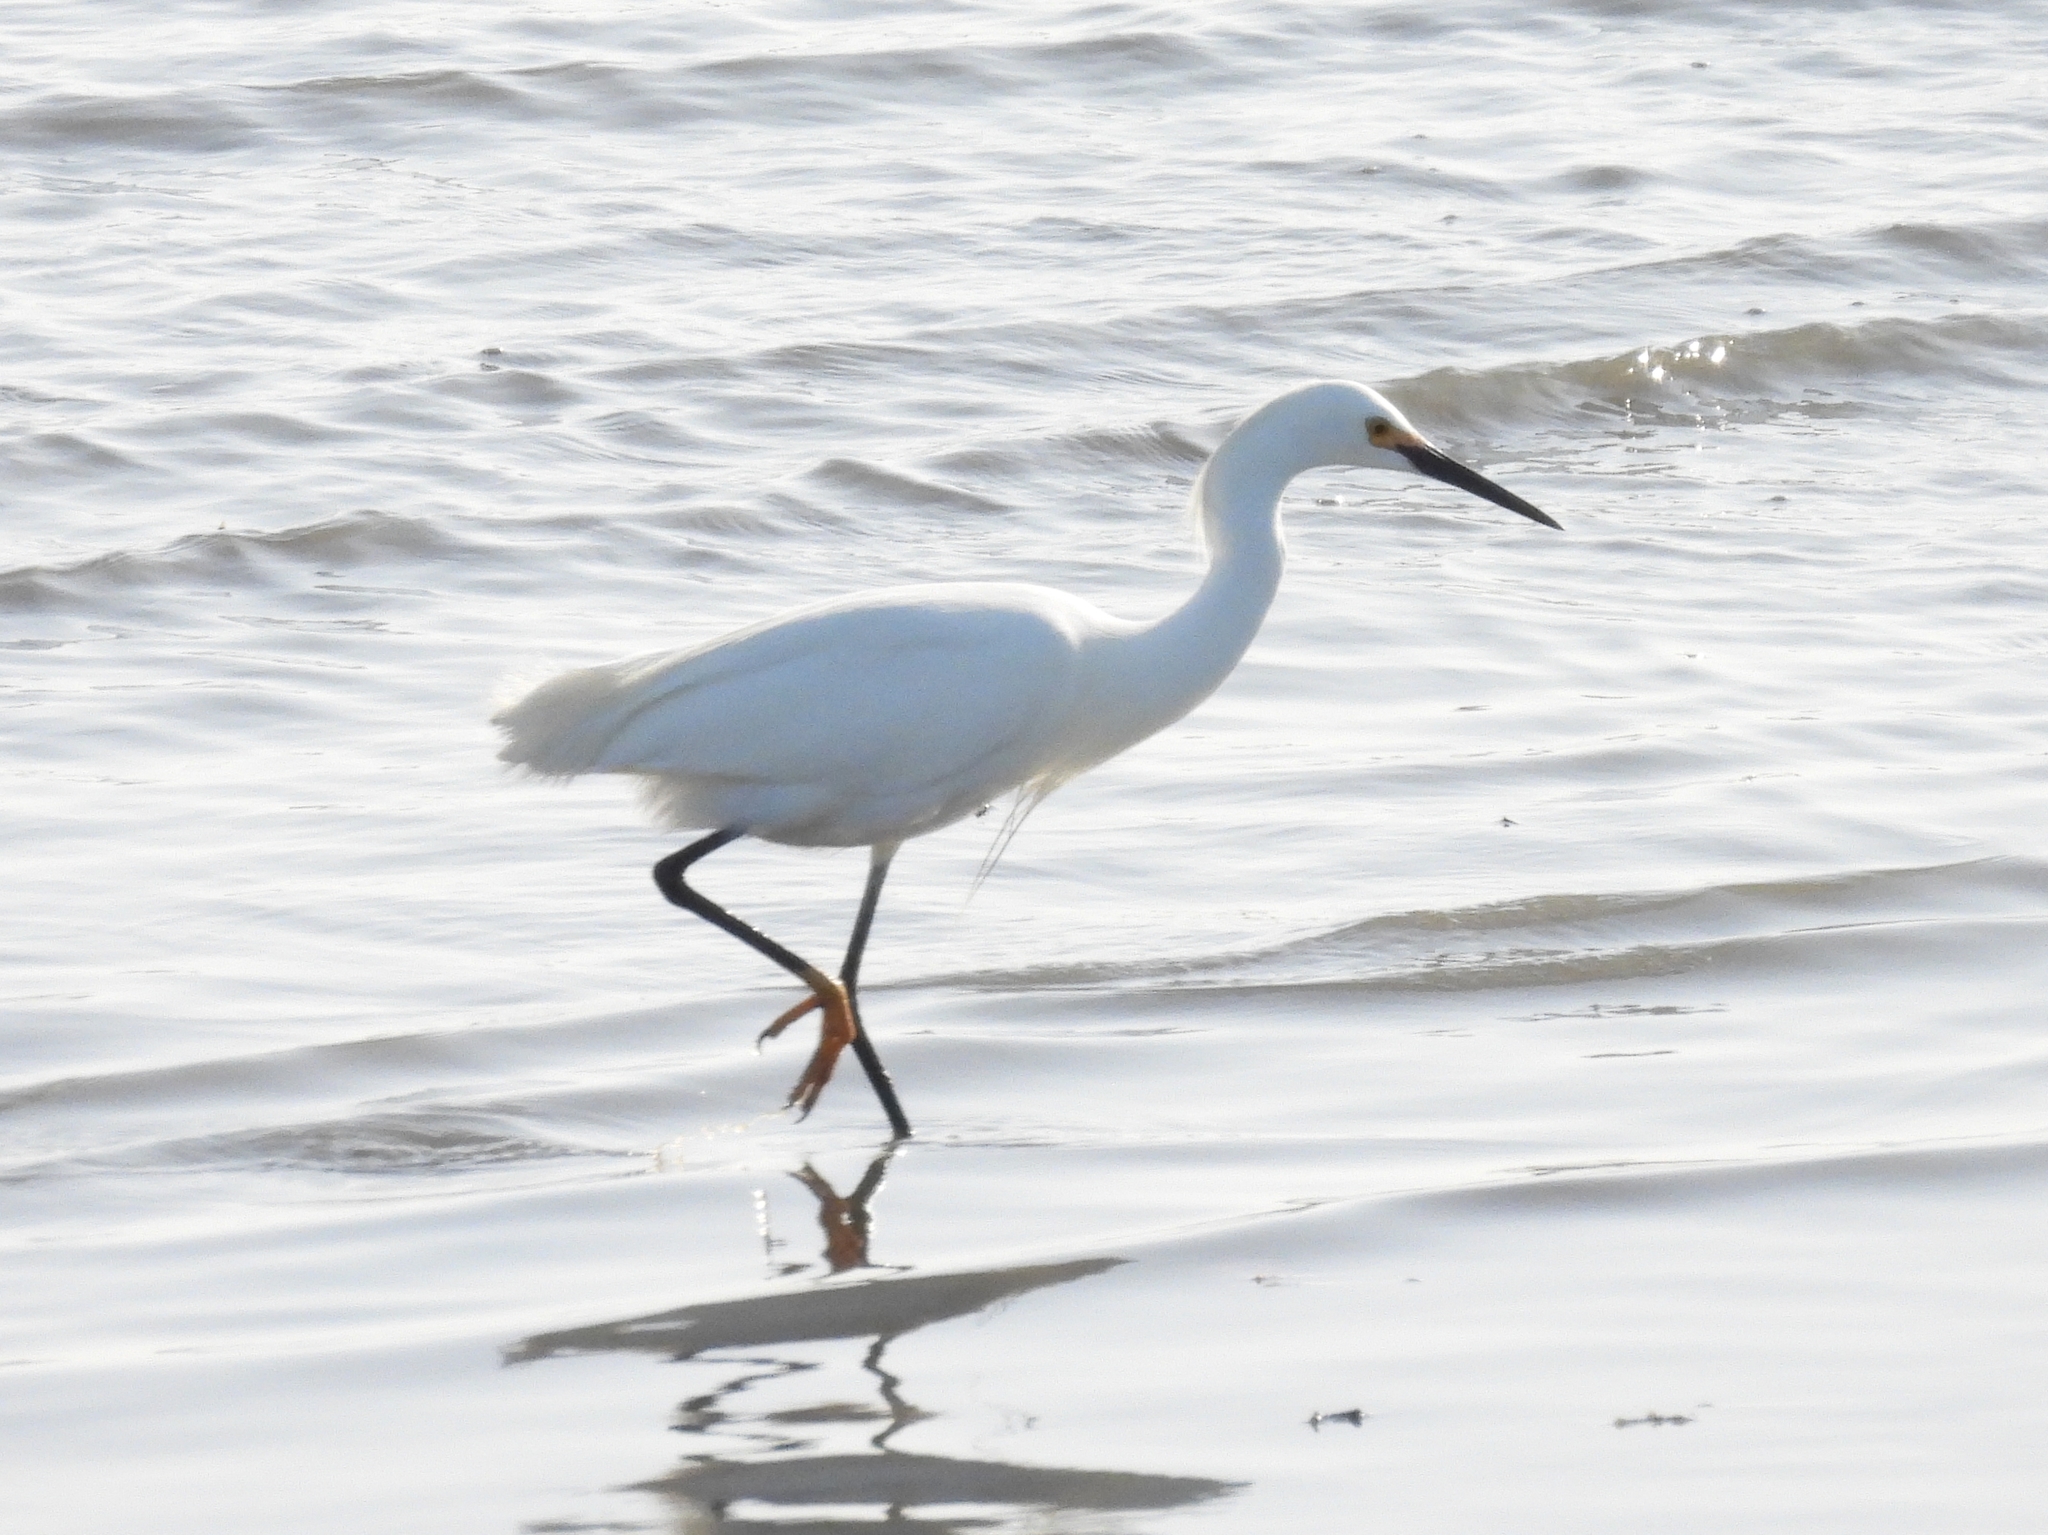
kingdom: Animalia
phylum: Chordata
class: Aves
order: Pelecaniformes
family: Ardeidae
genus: Egretta
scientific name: Egretta thula
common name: Snowy egret
